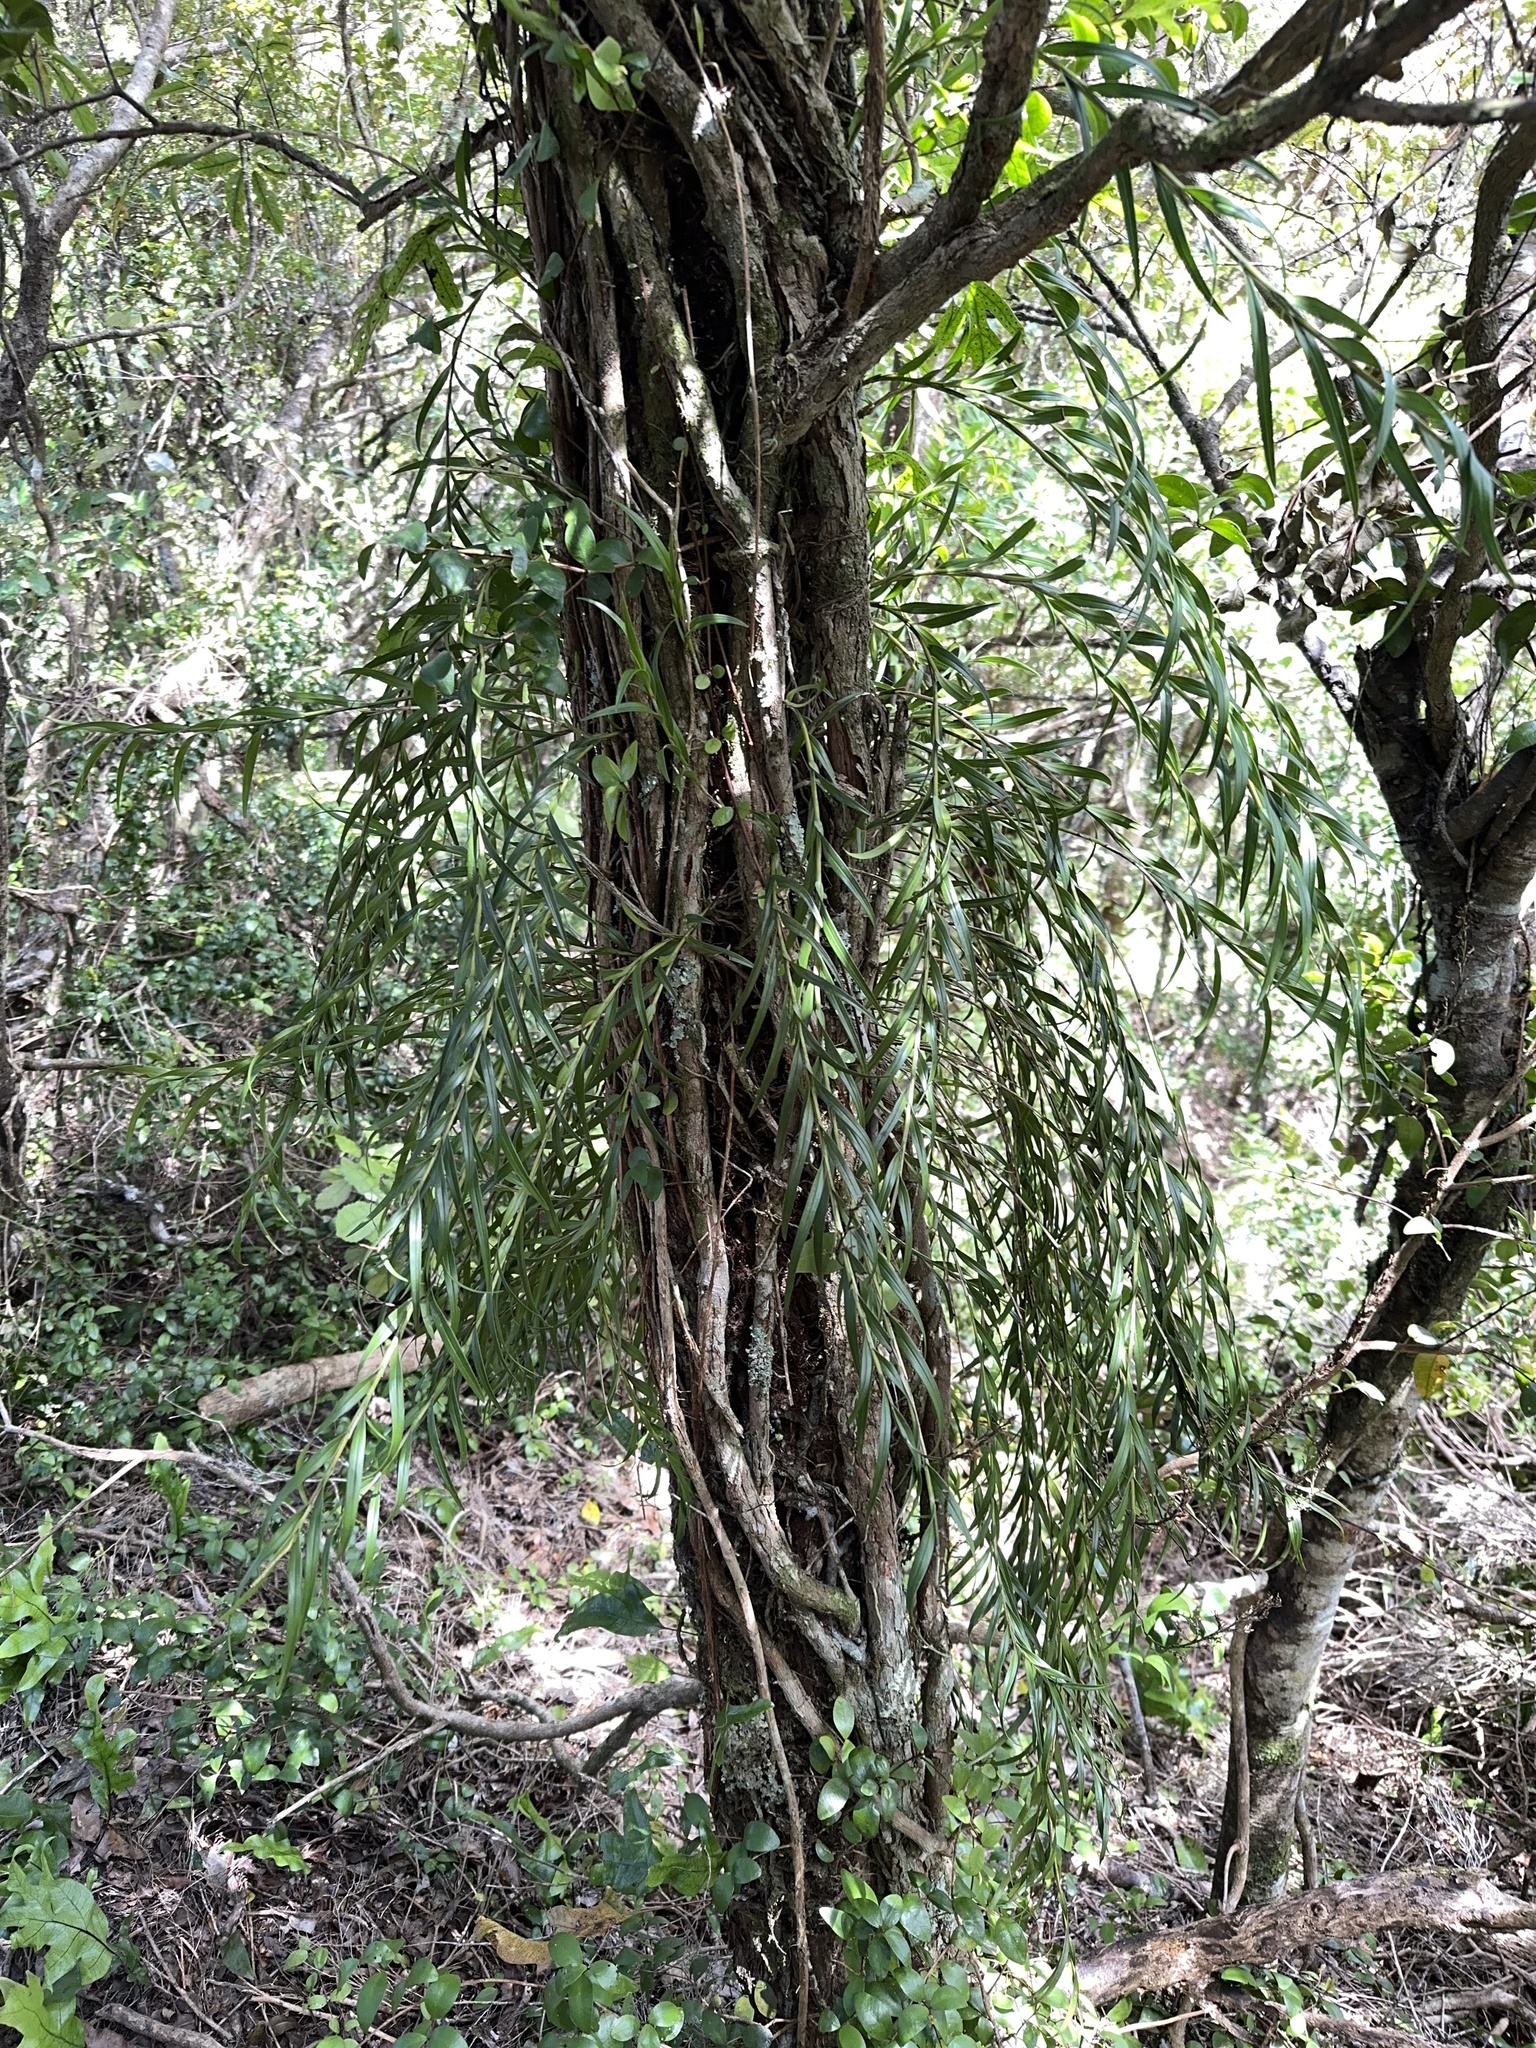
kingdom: Plantae
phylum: Tracheophyta
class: Liliopsida
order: Asparagales
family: Orchidaceae
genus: Earina
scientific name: Earina autumnalis
